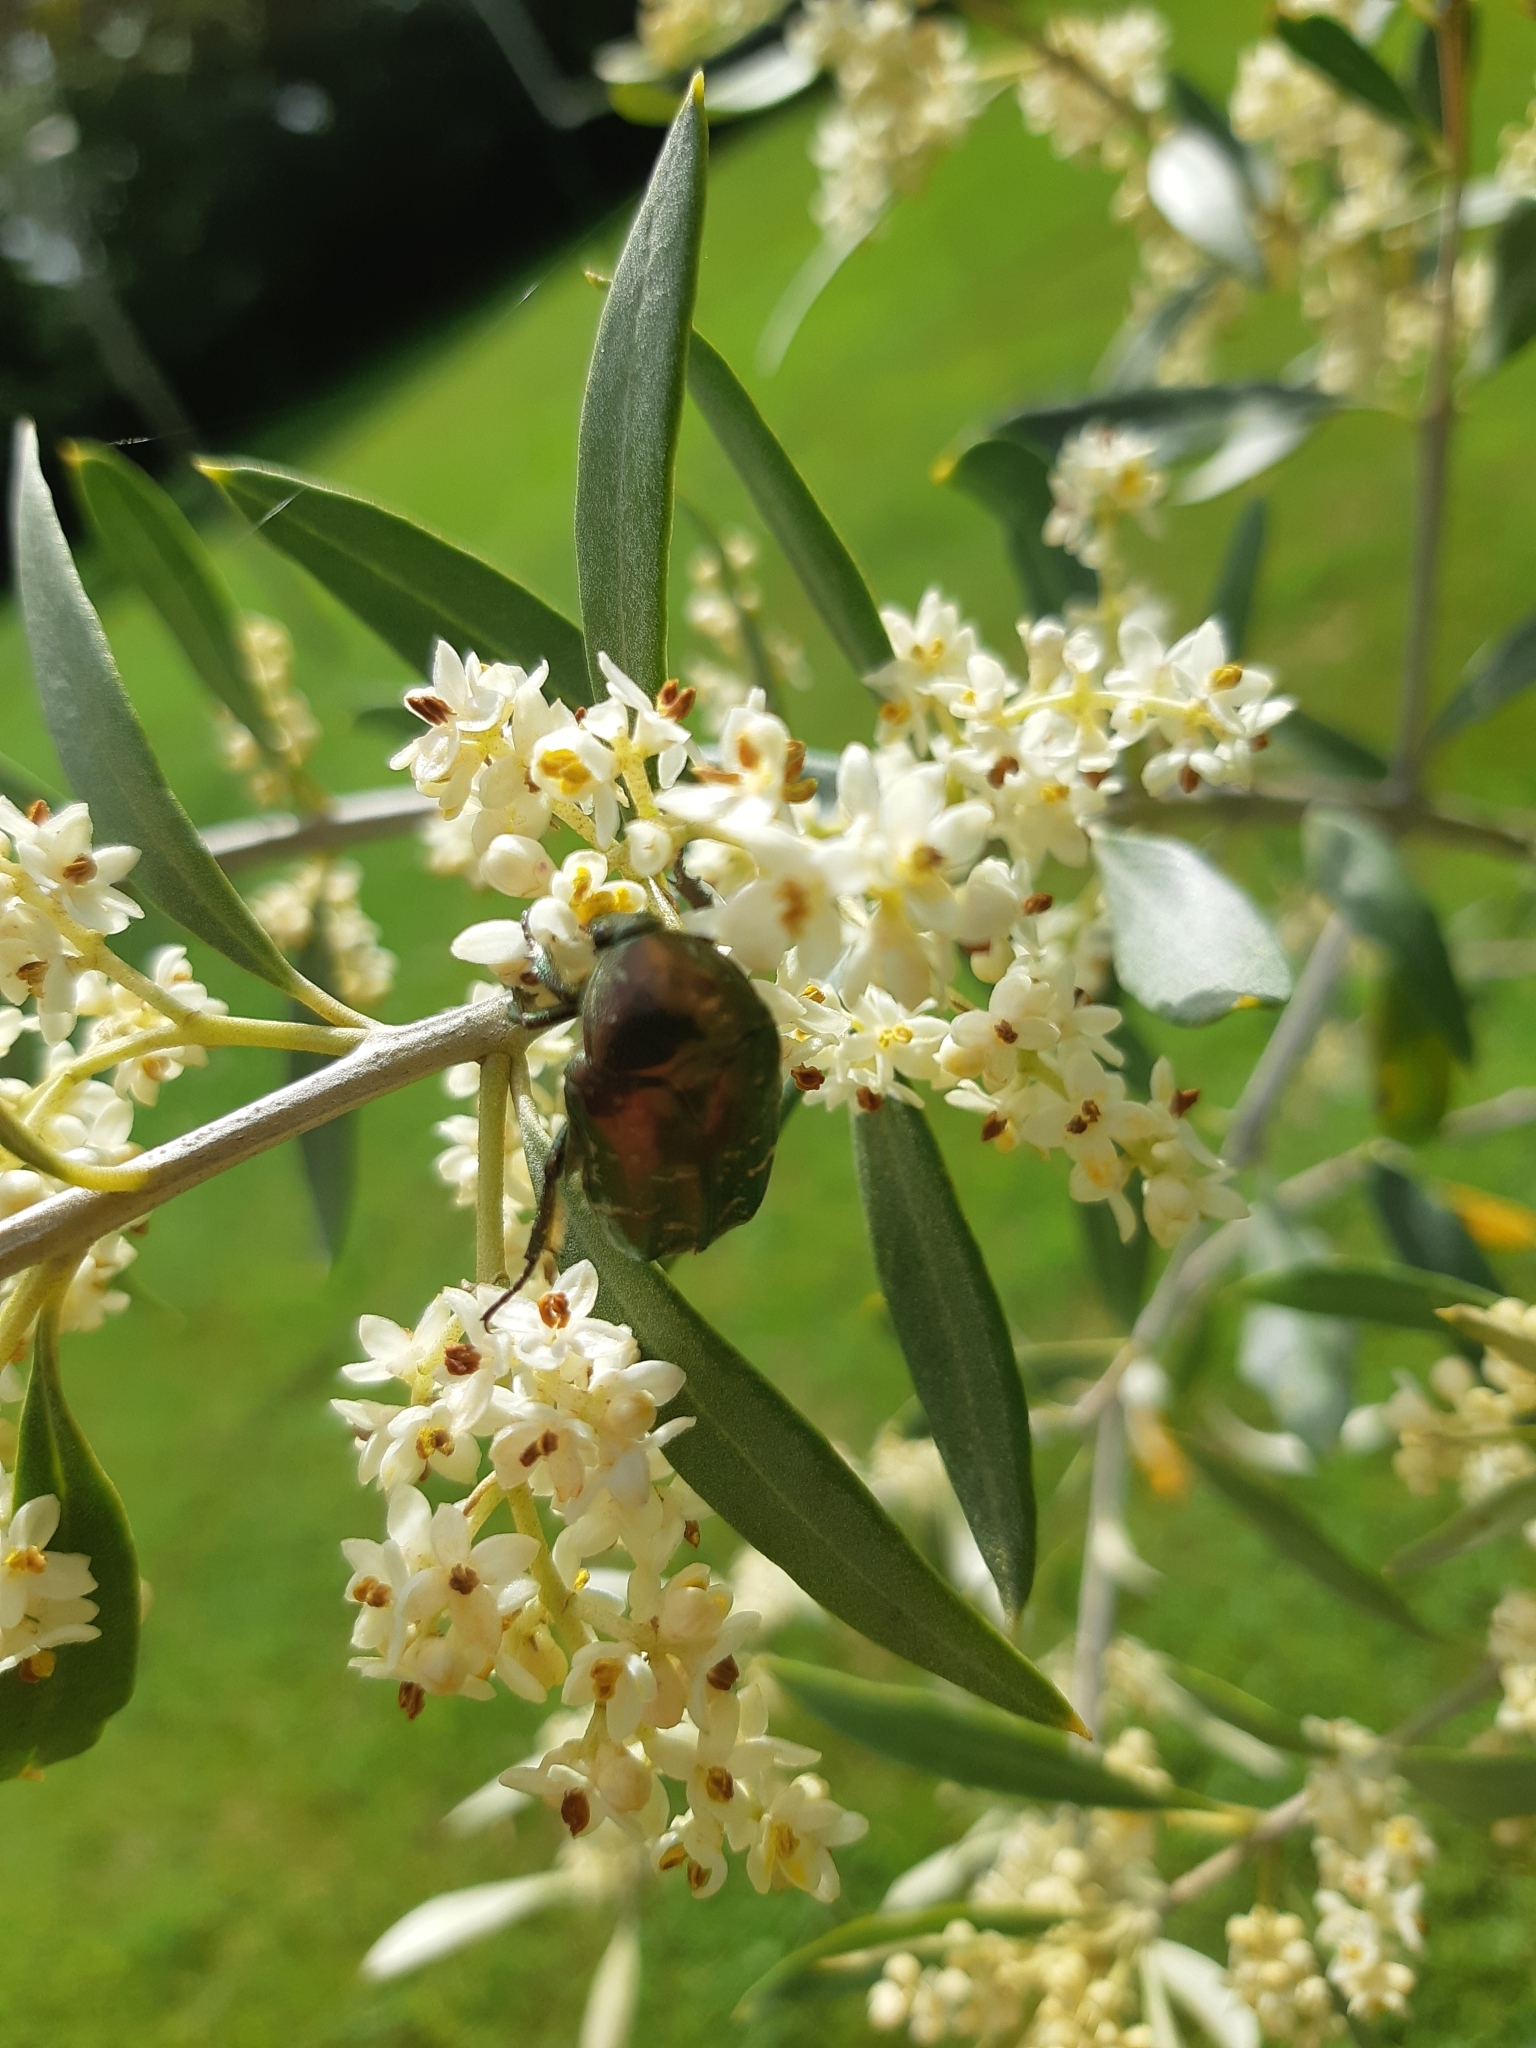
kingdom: Animalia
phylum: Arthropoda
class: Insecta
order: Coleoptera
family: Scarabaeidae
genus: Protaetia
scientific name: Protaetia cuprea
